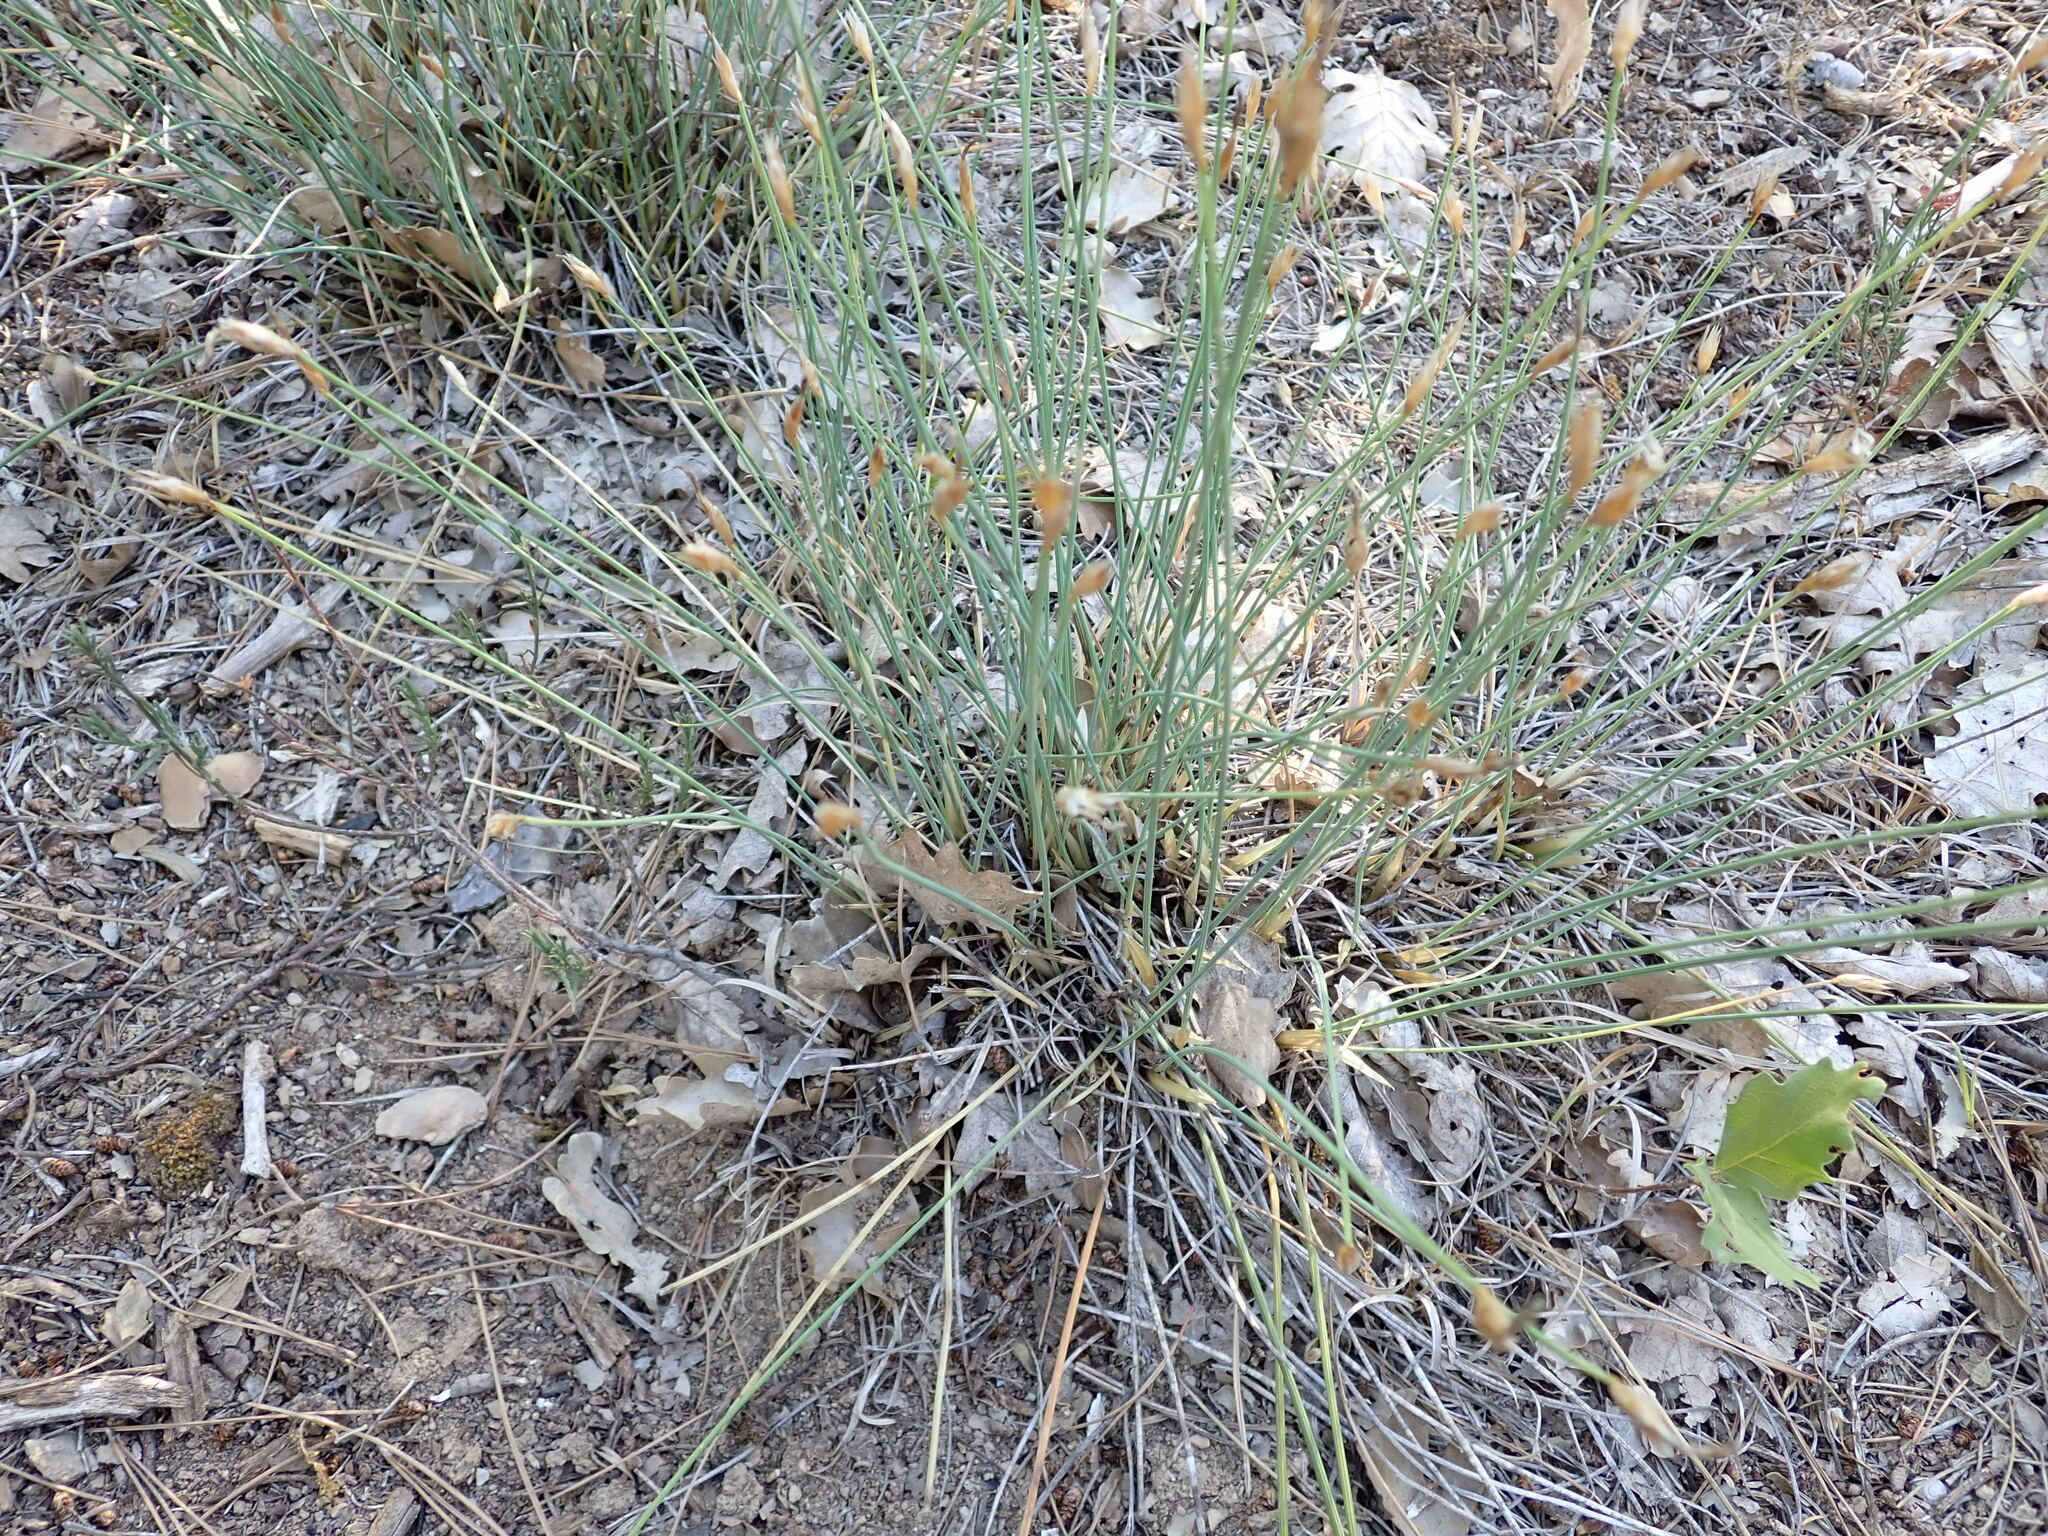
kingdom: Plantae
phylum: Tracheophyta
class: Liliopsida
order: Asparagales
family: Asparagaceae
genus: Aphyllanthes
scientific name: Aphyllanthes monspeliensis
